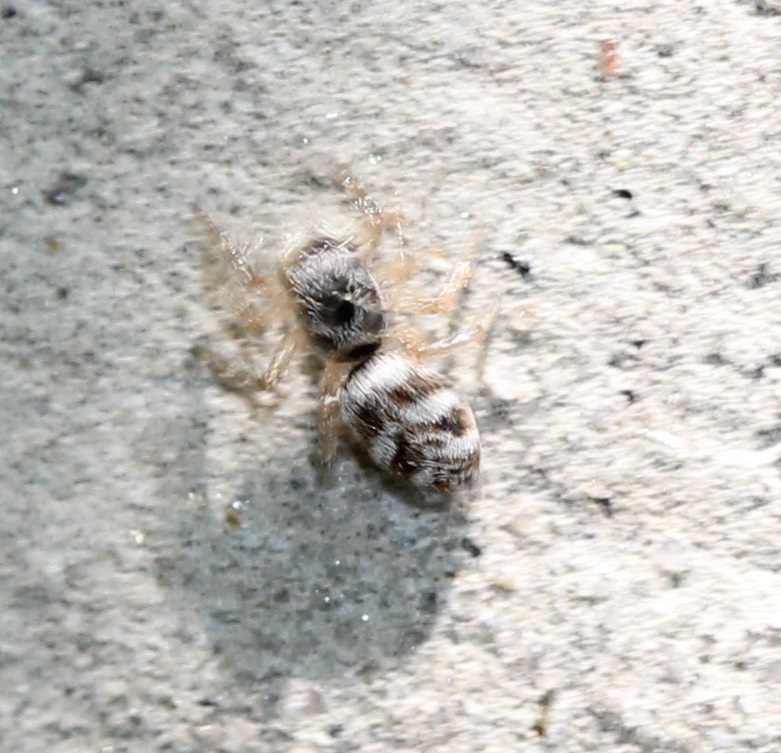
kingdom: Animalia
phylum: Arthropoda
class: Arachnida
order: Araneae
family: Salticidae
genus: Salticus
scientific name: Salticus scenicus
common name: Zebra jumper
